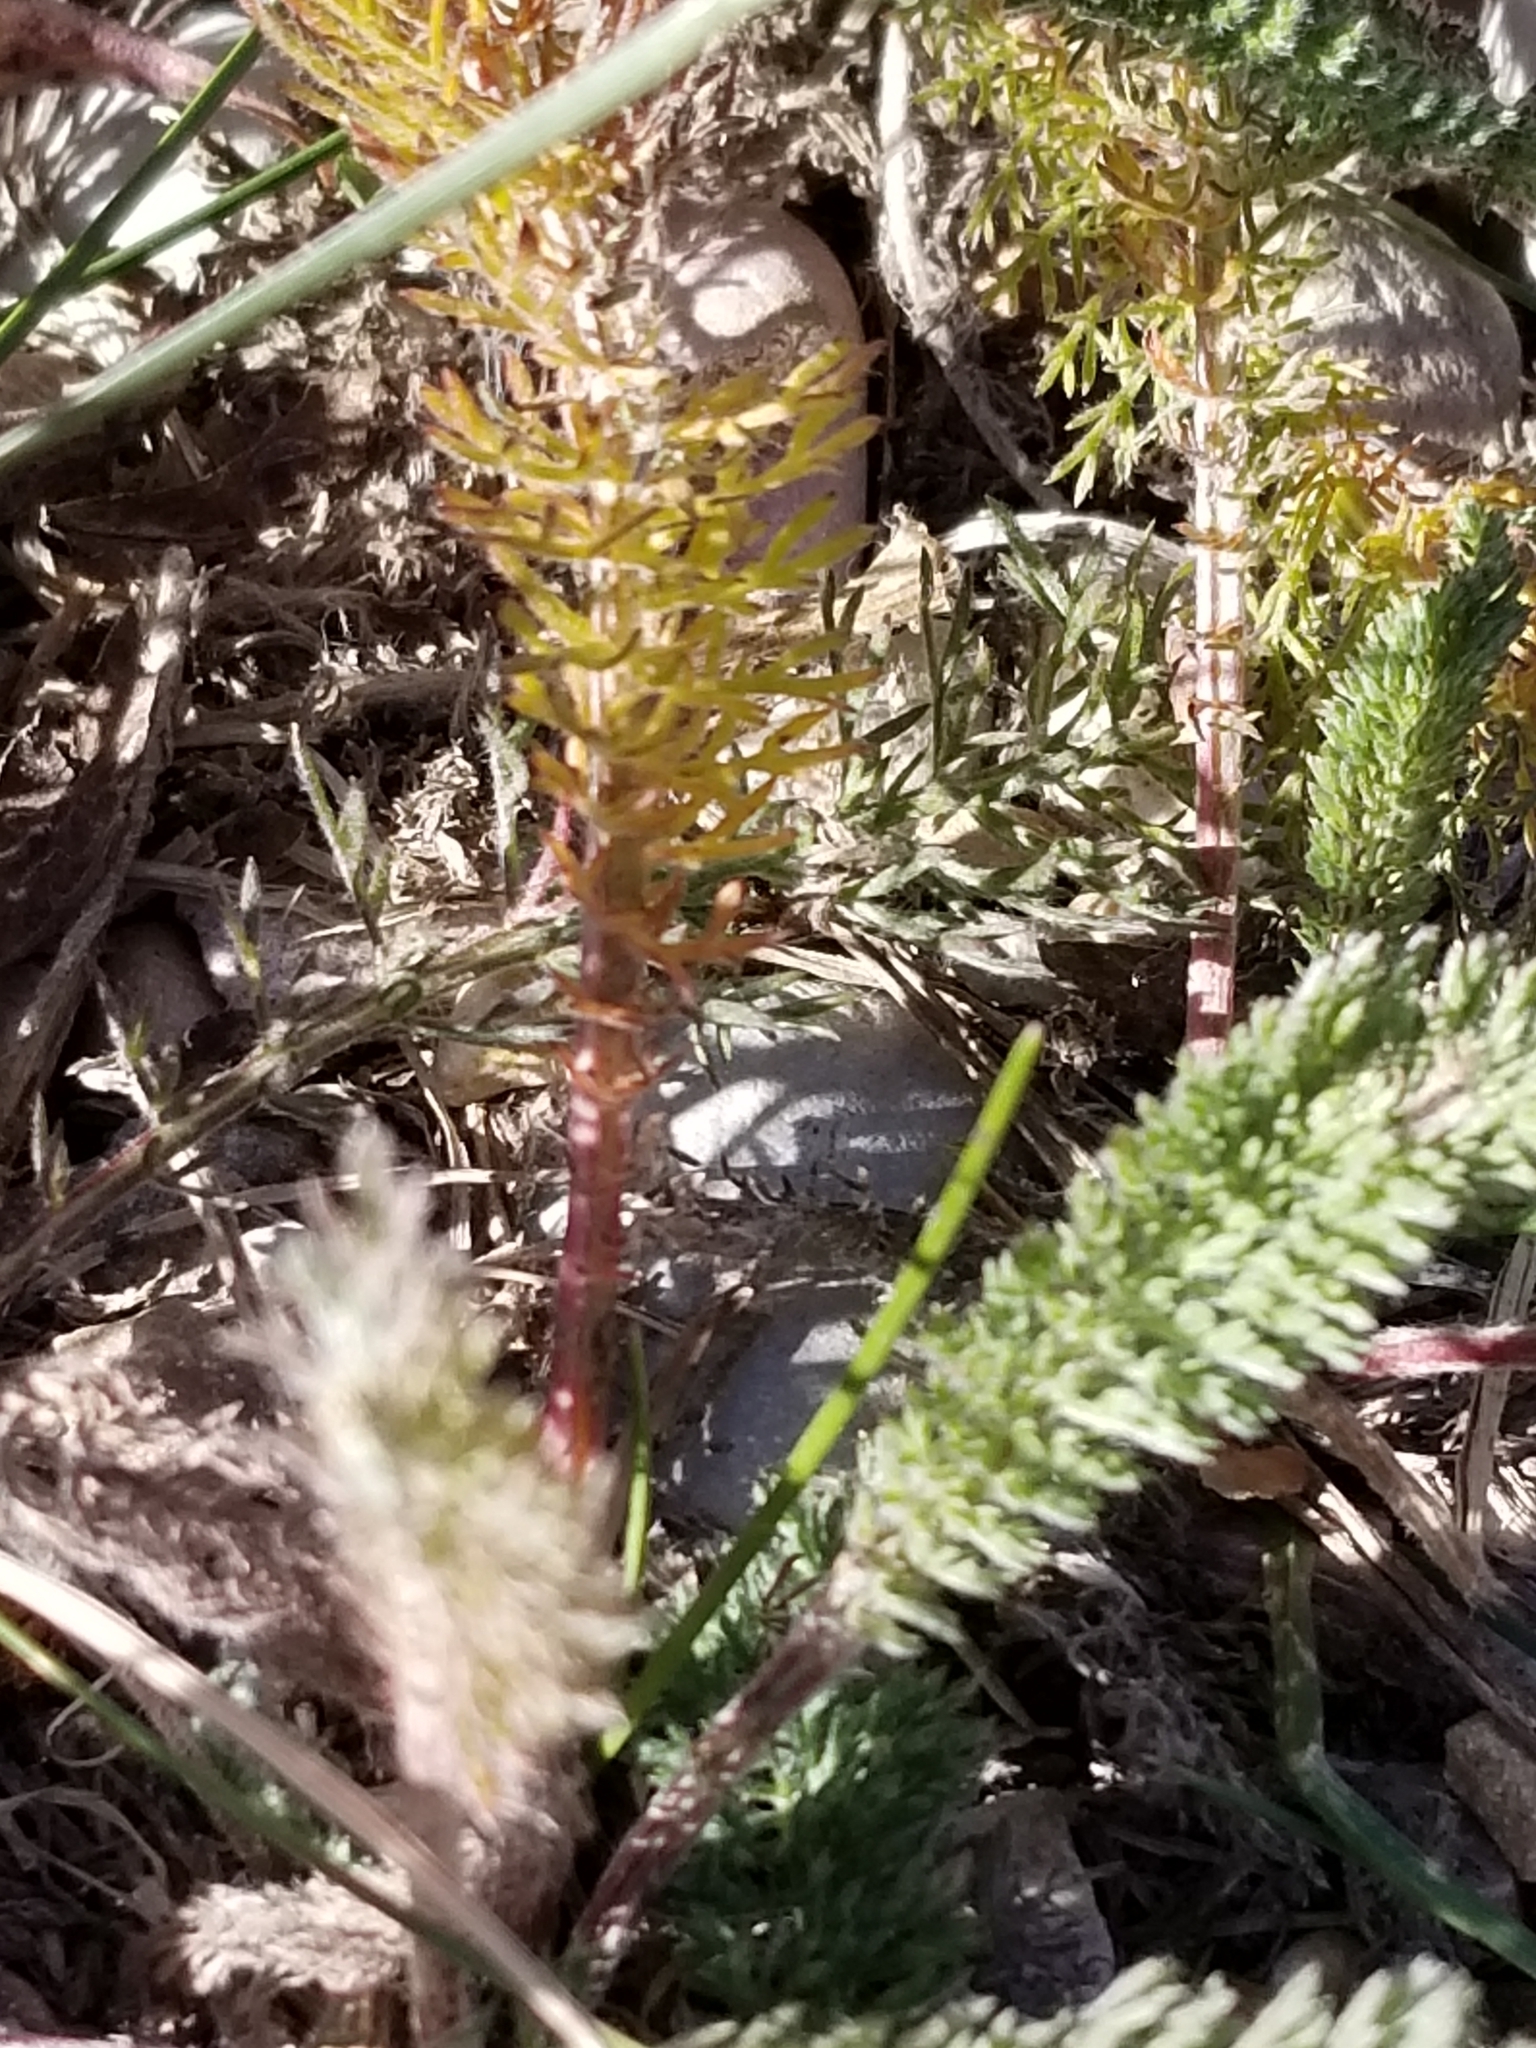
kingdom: Plantae
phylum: Tracheophyta
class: Magnoliopsida
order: Asterales
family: Asteraceae
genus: Achillea
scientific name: Achillea millefolium
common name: Yarrow
